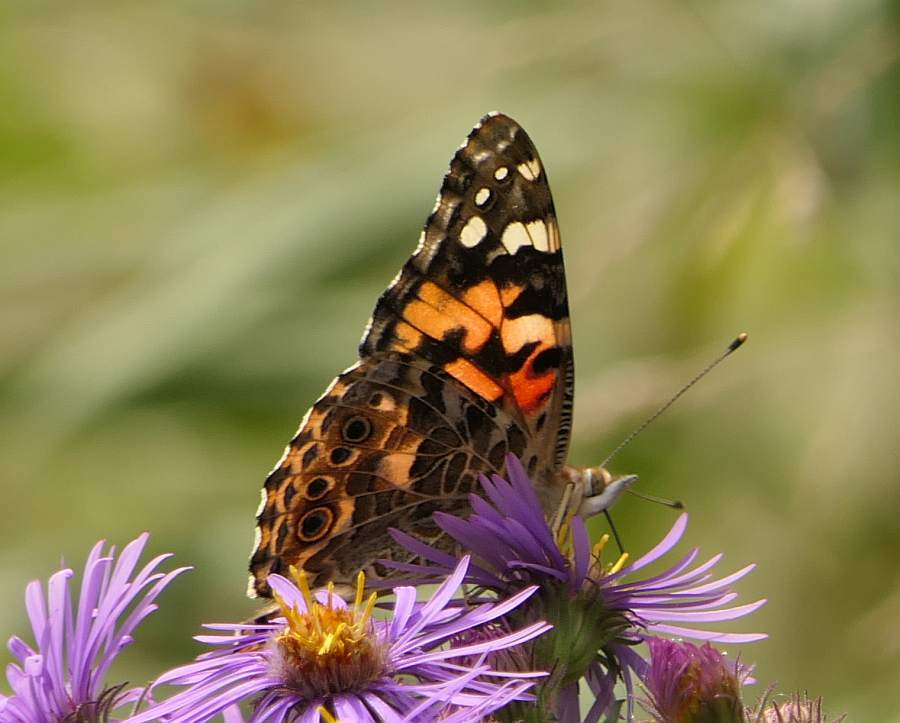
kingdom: Animalia
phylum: Arthropoda
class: Insecta
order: Lepidoptera
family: Nymphalidae
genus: Vanessa
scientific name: Vanessa cardui
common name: Painted lady
